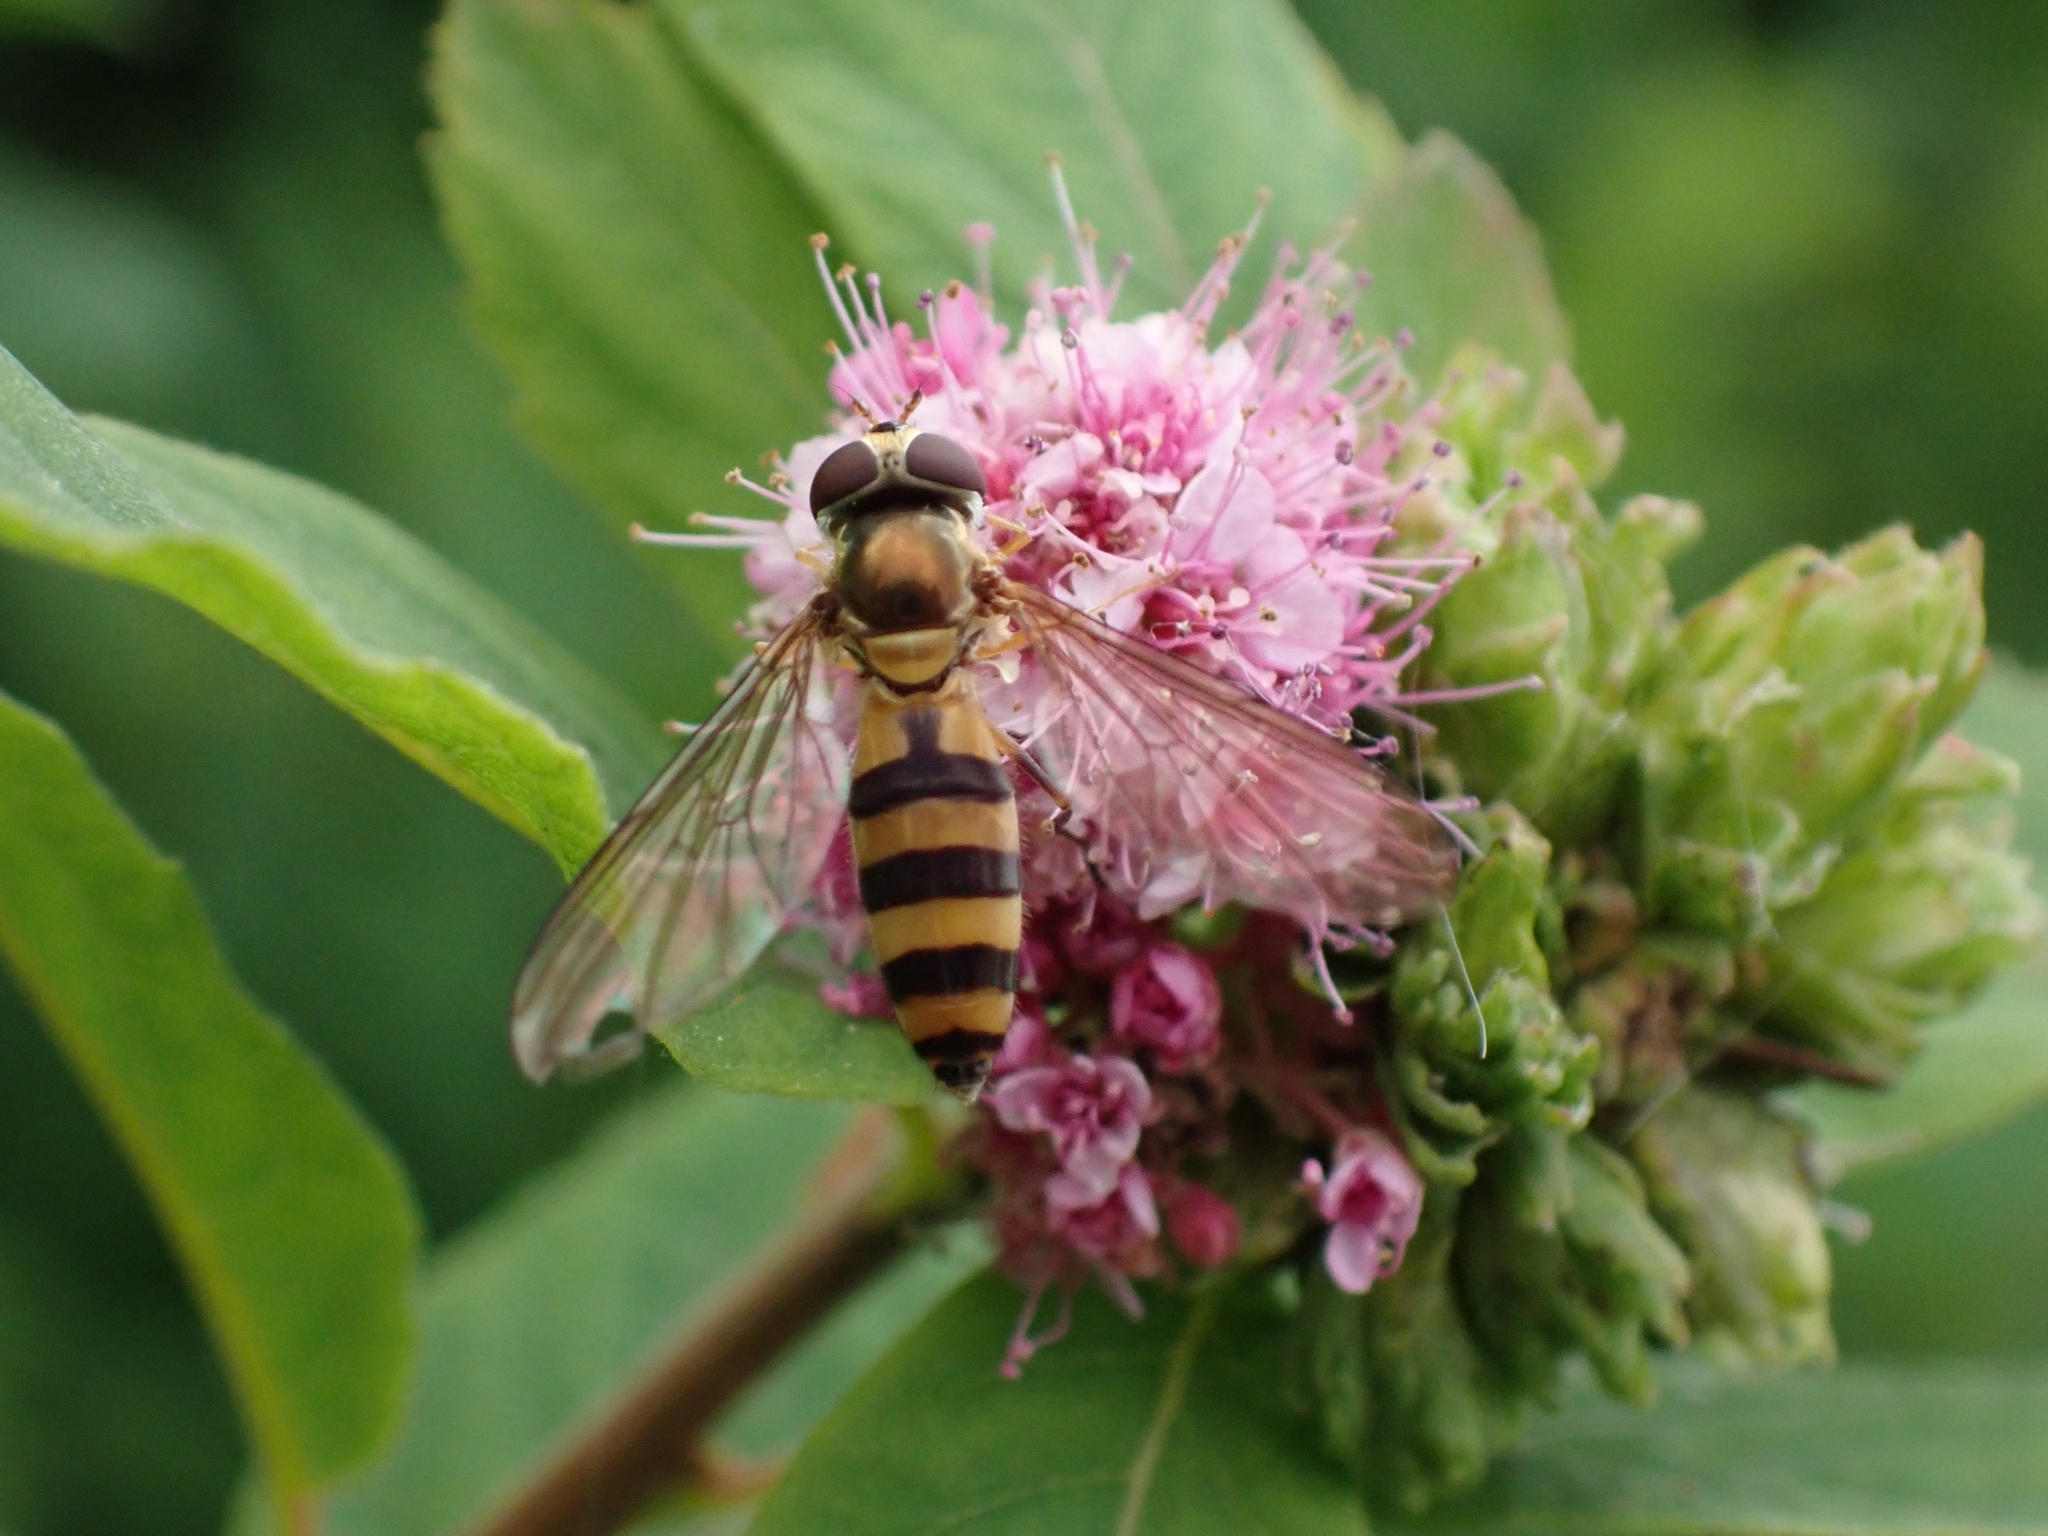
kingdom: Animalia
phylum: Arthropoda
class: Insecta
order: Diptera
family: Syrphidae
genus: Meliscaeva
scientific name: Meliscaeva cinctella
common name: American thintail fly
